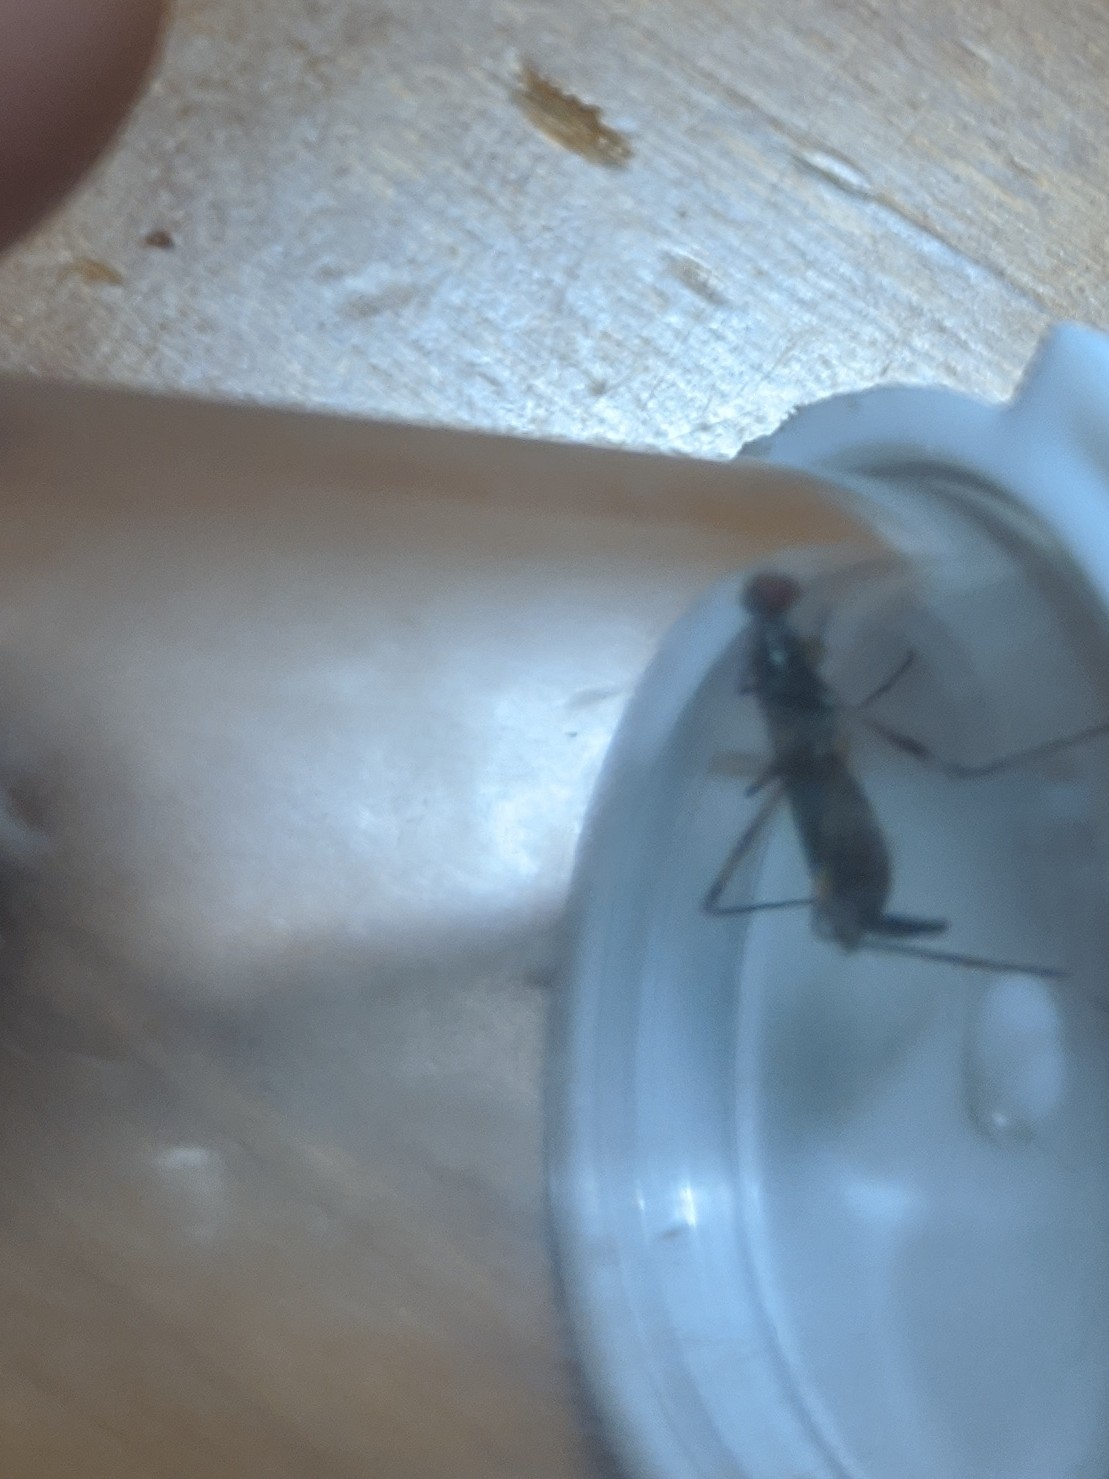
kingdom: Animalia
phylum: Arthropoda
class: Insecta
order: Diptera
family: Micropezidae
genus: Rainieria
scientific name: Rainieria antennaepes
